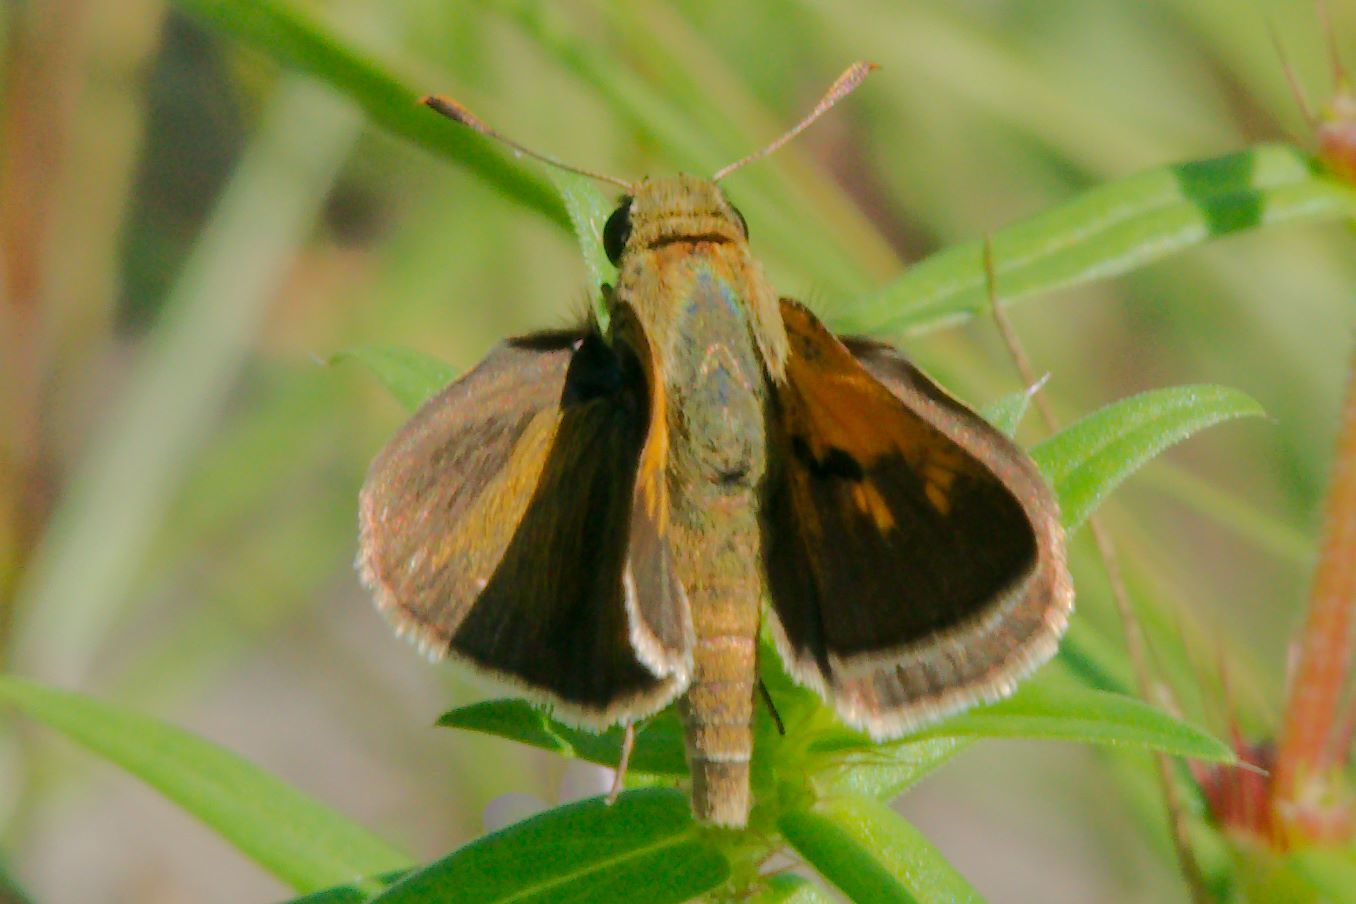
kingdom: Animalia
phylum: Arthropoda
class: Insecta
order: Lepidoptera
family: Hesperiidae
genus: Polites
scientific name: Polites themistocles
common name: Tawny-edged skipper
